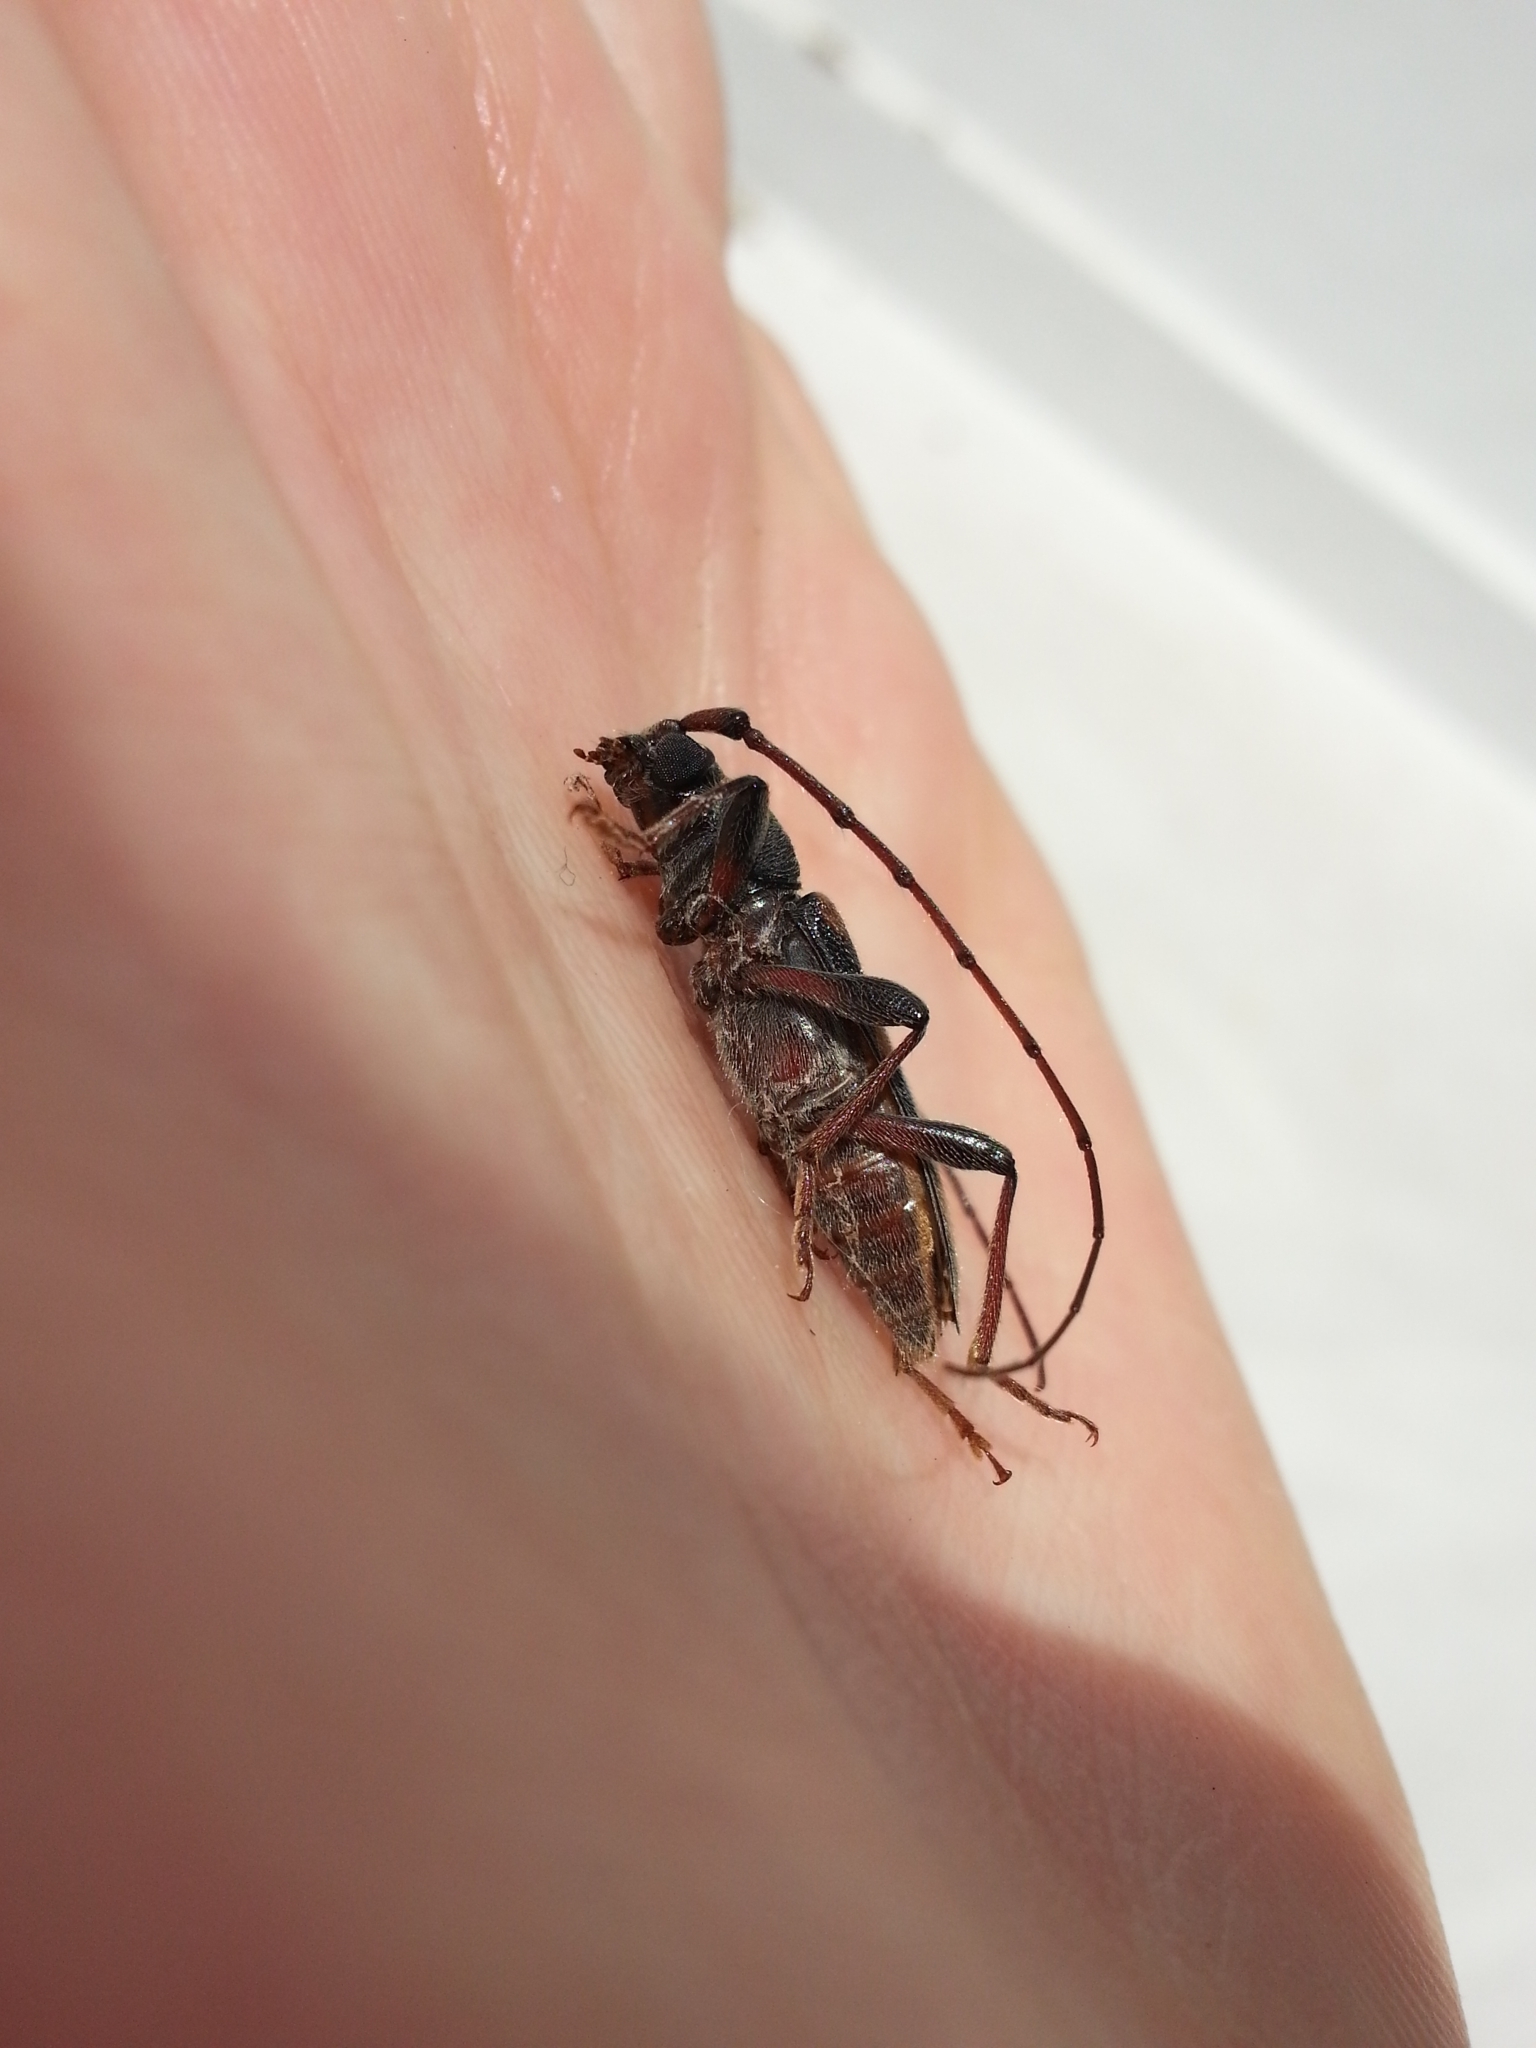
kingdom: Animalia
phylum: Arthropoda
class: Insecta
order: Coleoptera
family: Cerambycidae
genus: Achryson
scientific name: Achryson undulatum
